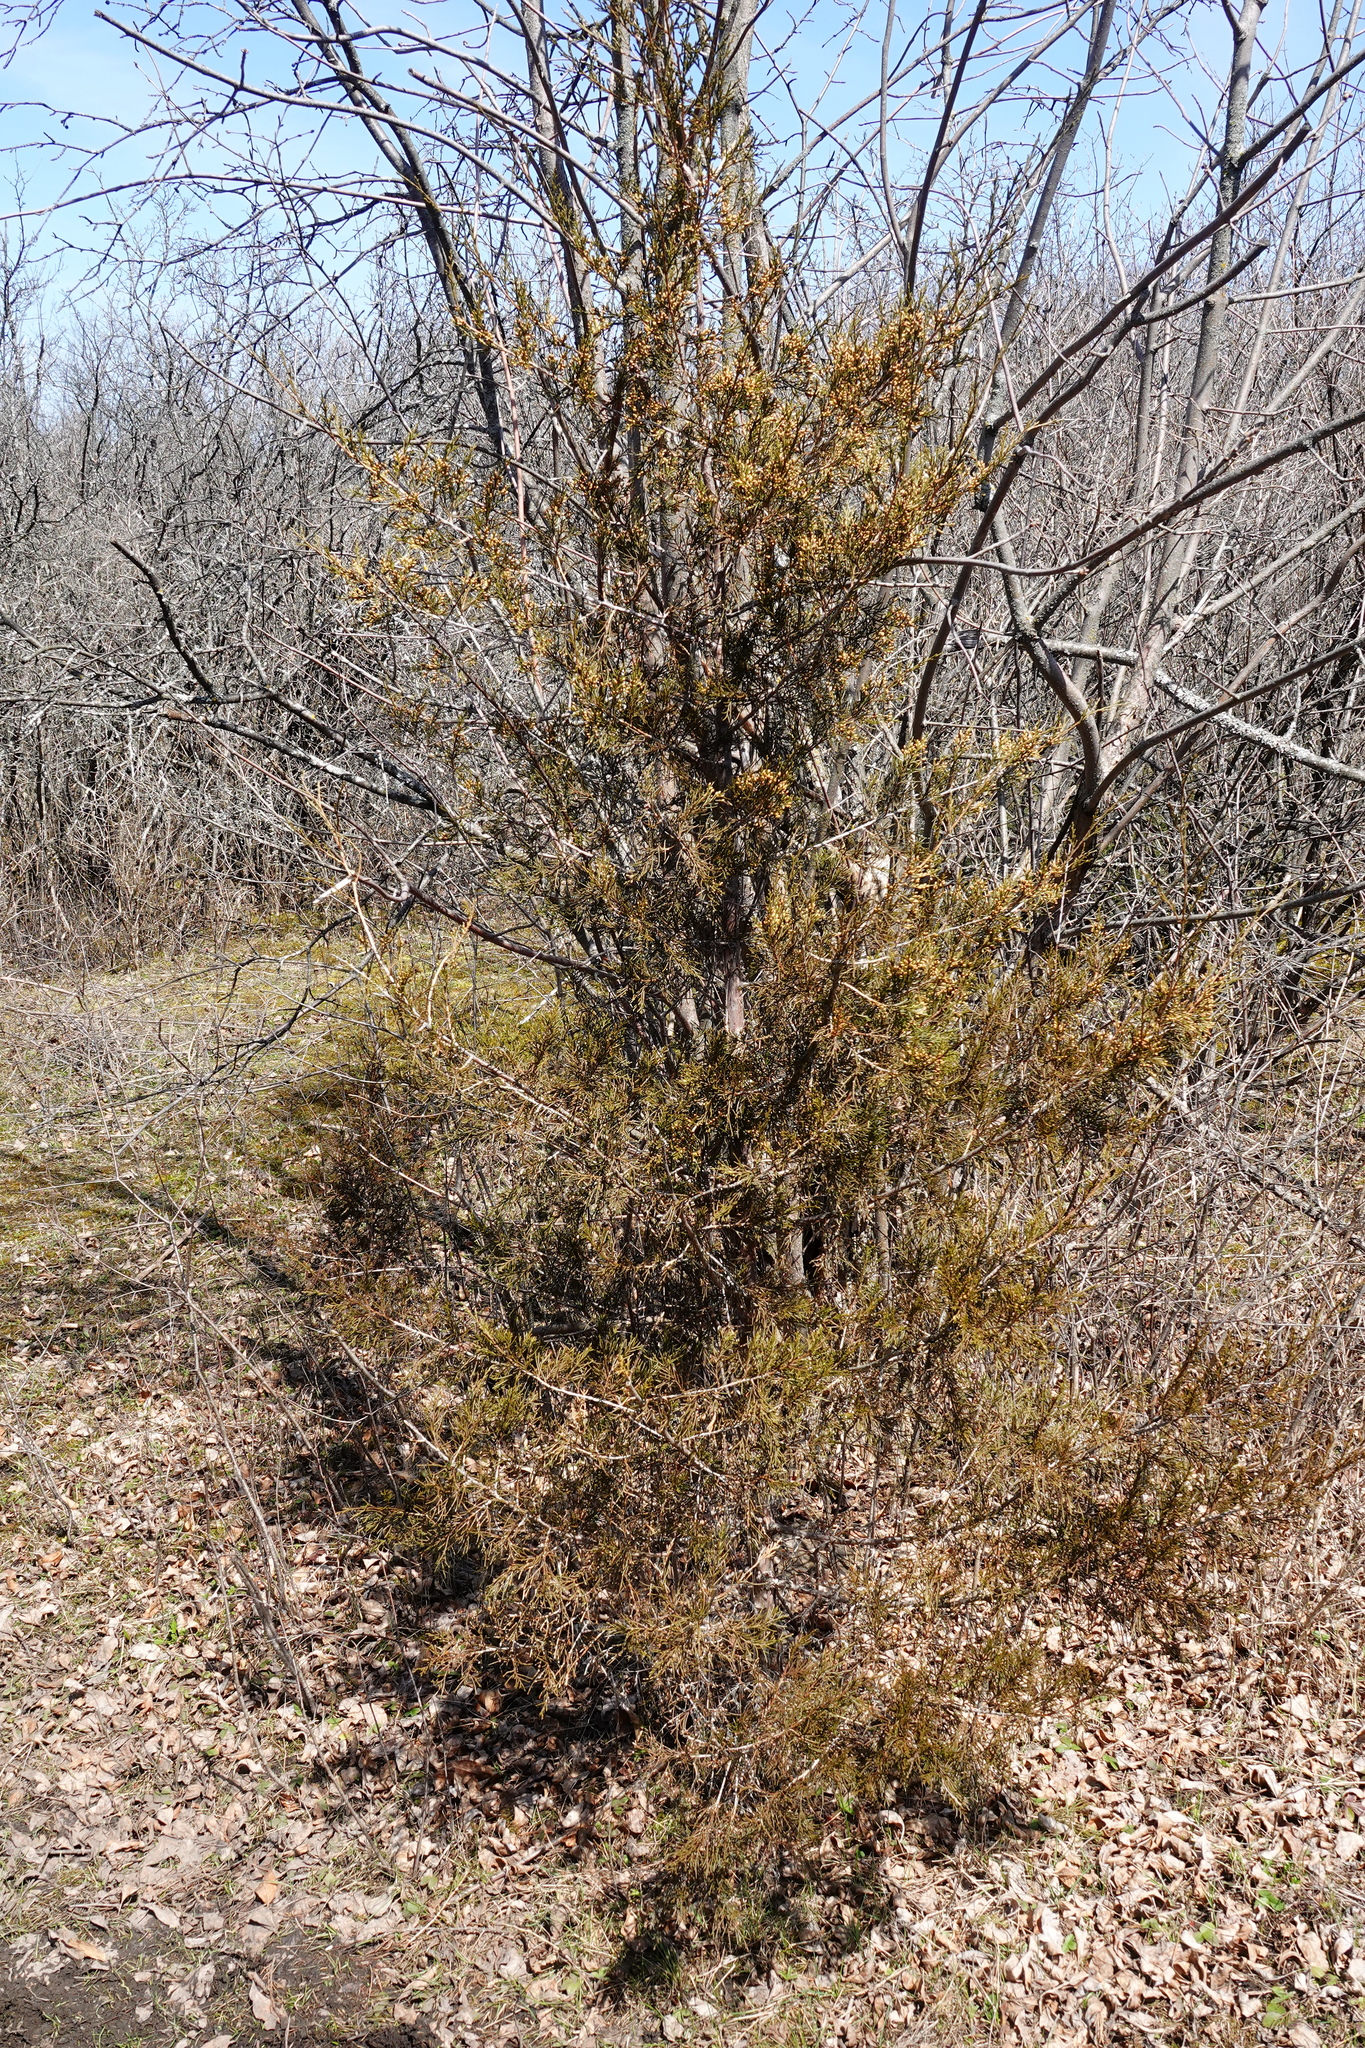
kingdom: Plantae
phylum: Tracheophyta
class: Pinopsida
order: Pinales
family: Cupressaceae
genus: Juniperus
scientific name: Juniperus virginiana
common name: Red juniper
